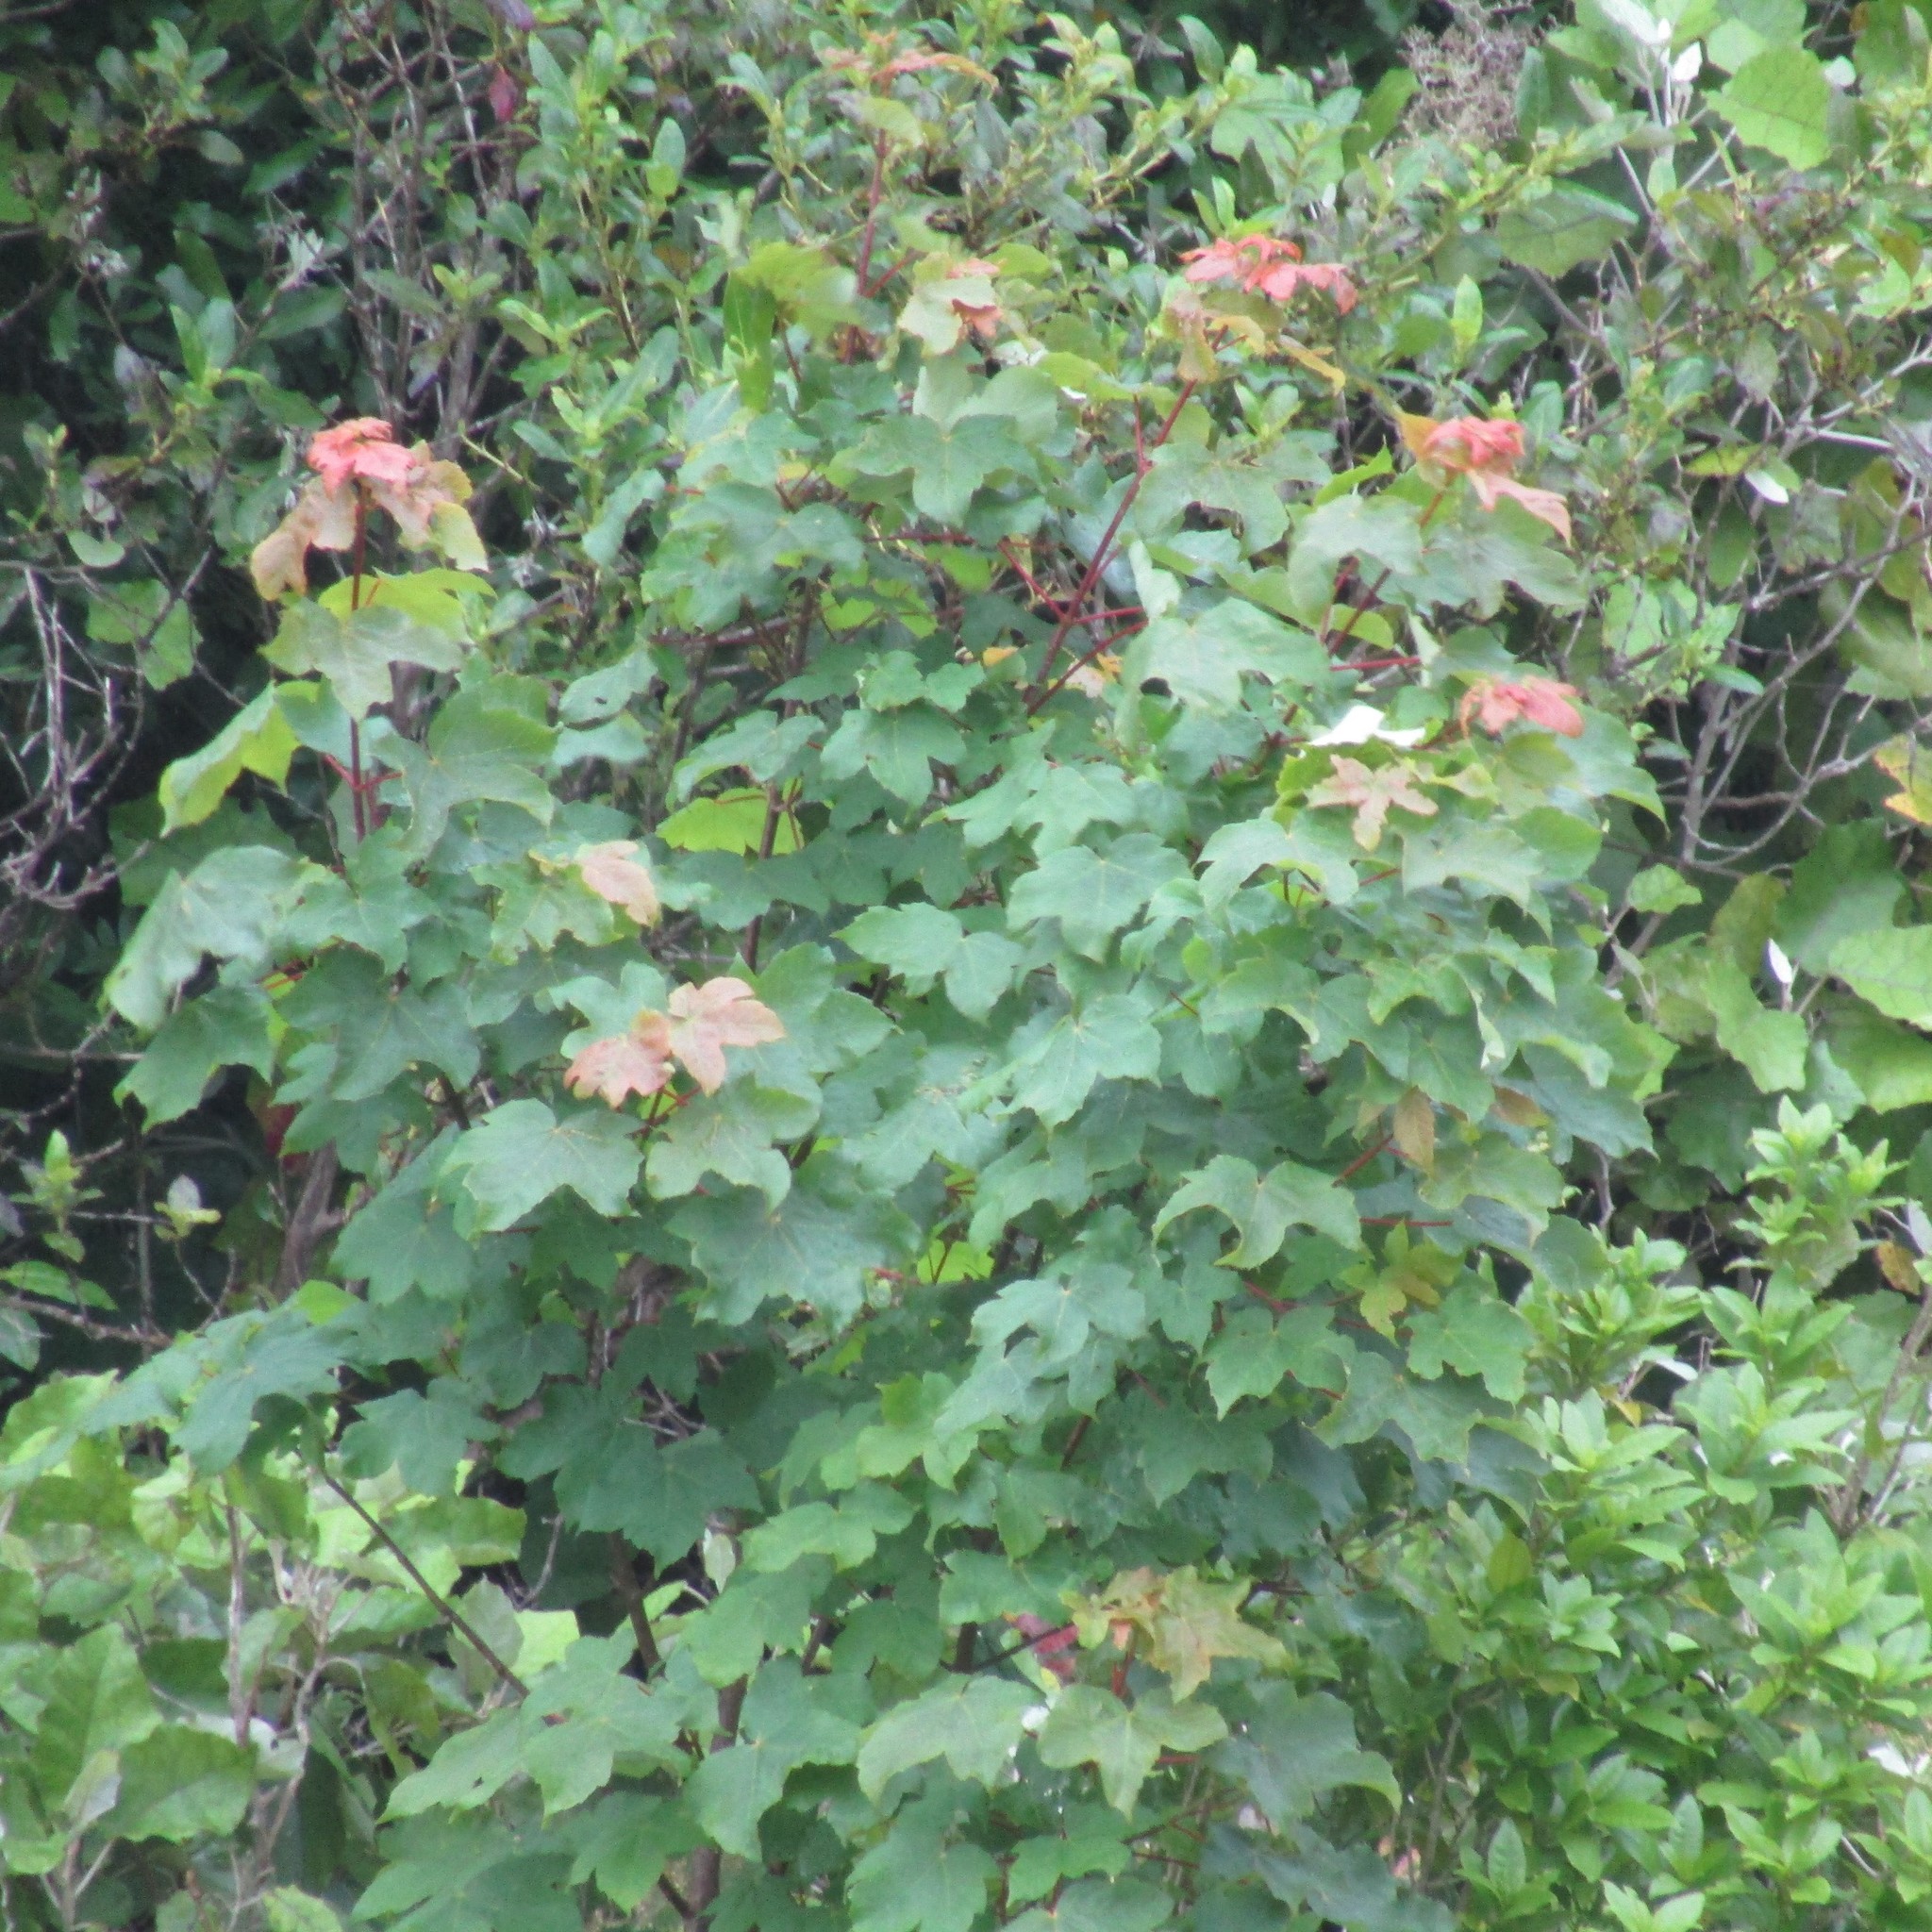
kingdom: Plantae
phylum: Tracheophyta
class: Magnoliopsida
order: Sapindales
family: Sapindaceae
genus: Acer
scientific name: Acer pseudoplatanus
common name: Sycamore
